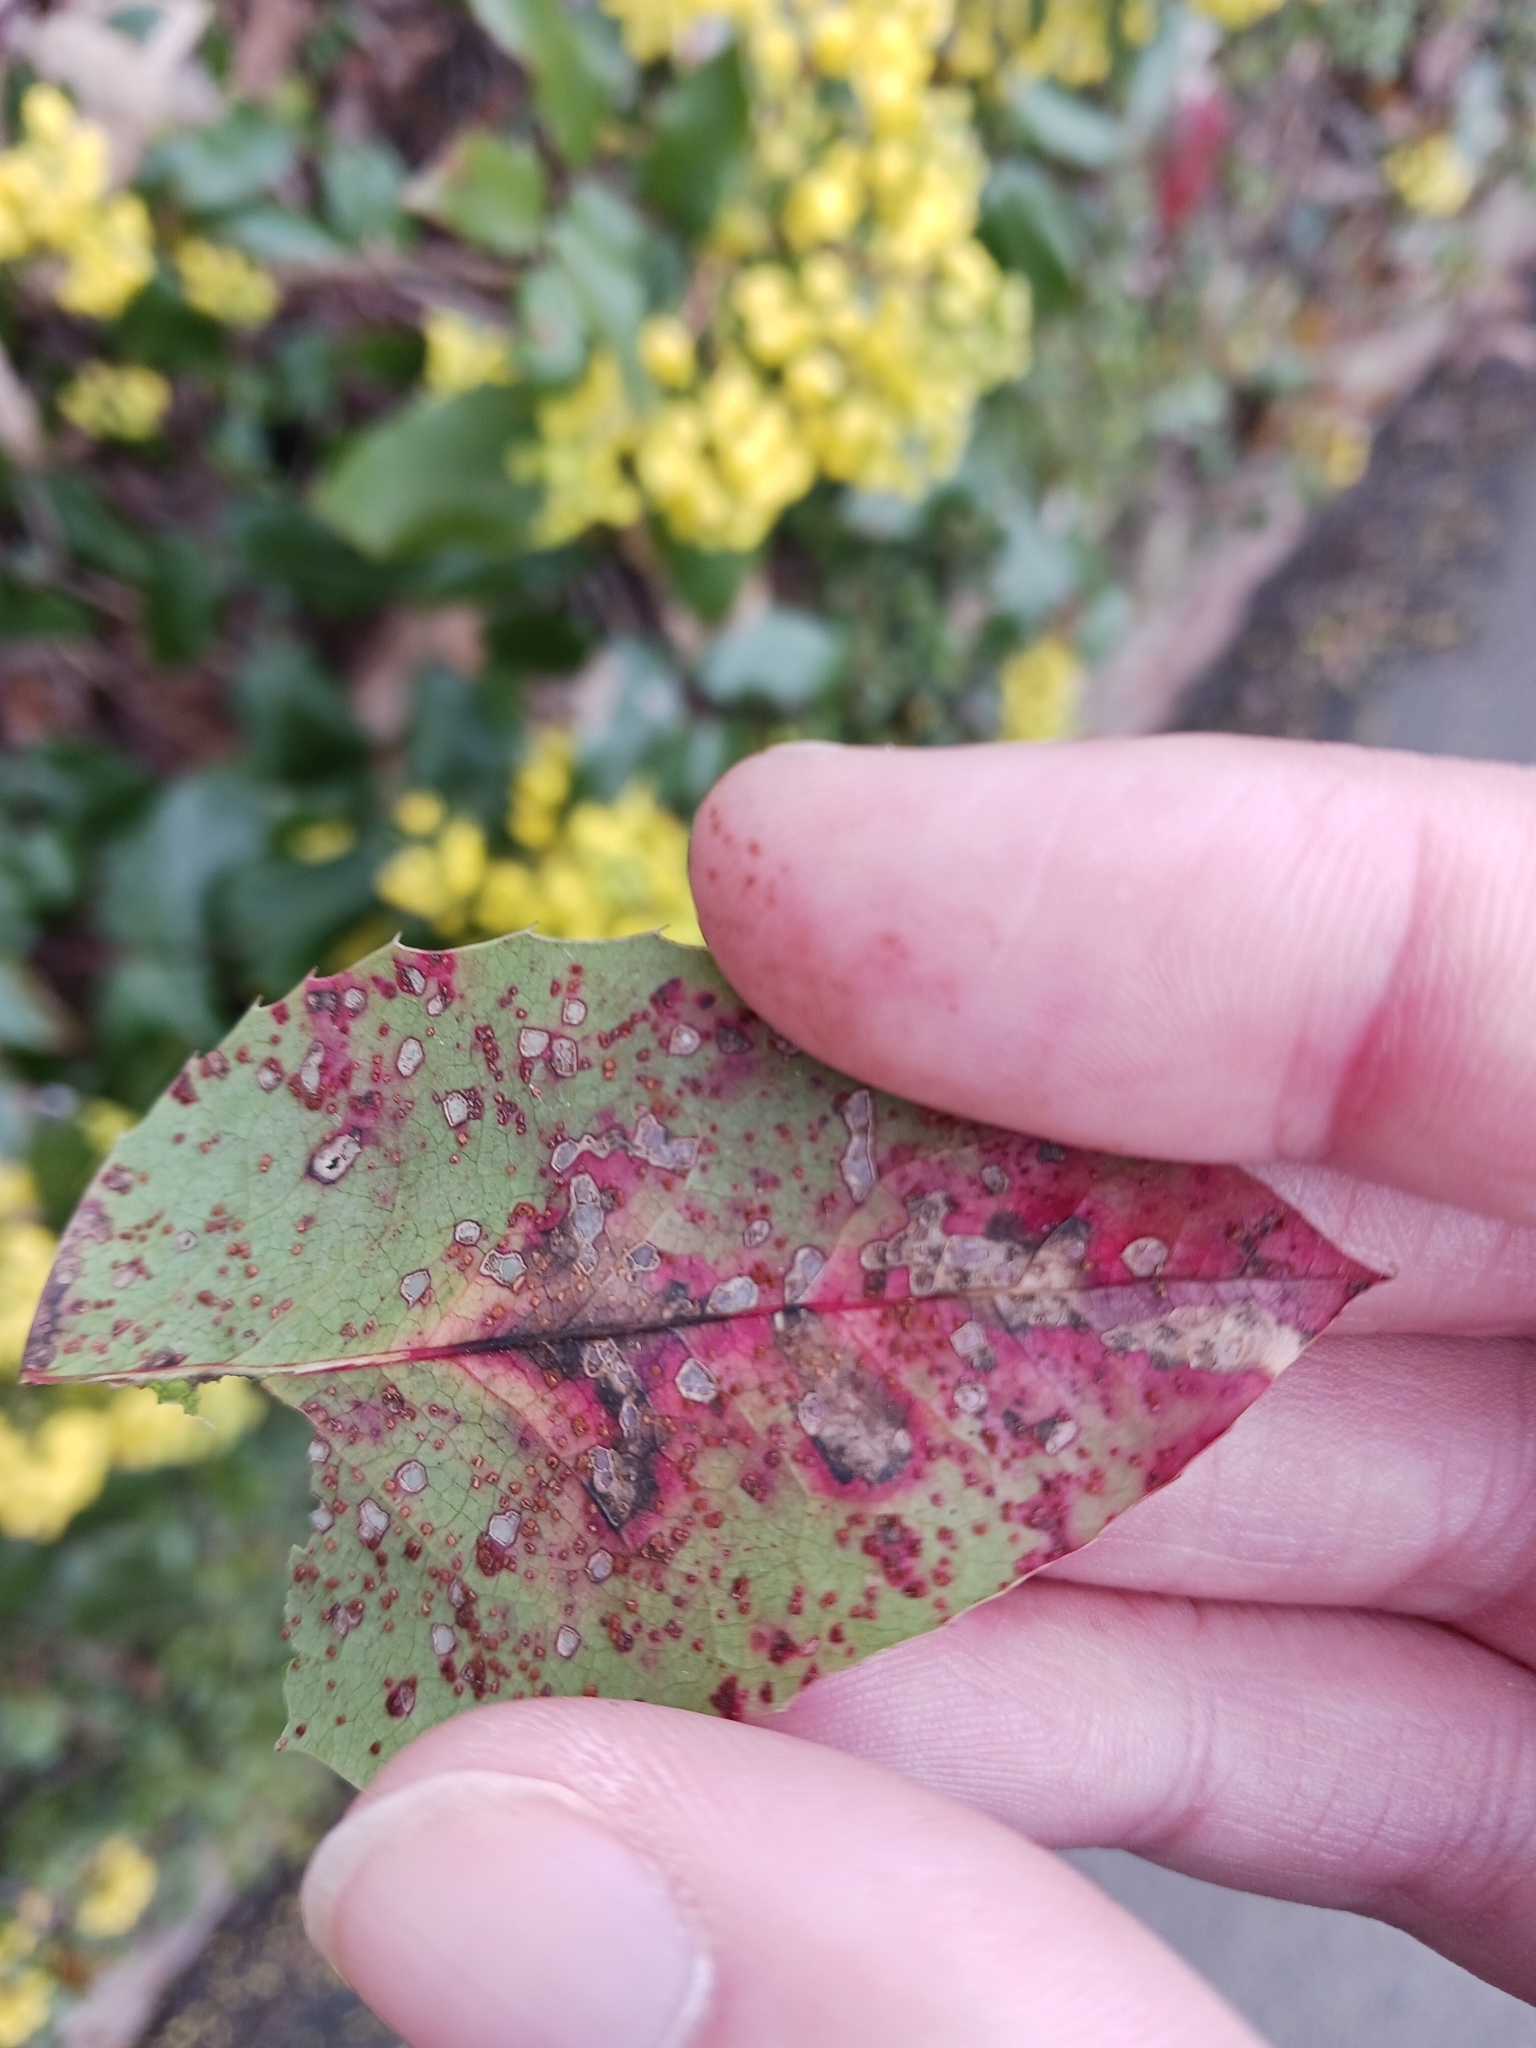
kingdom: Fungi
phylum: Basidiomycota
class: Pucciniomycetes
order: Pucciniales
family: Pucciniaceae
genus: Cumminsiella
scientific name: Cumminsiella mirabilissima
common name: Mahonia rust
